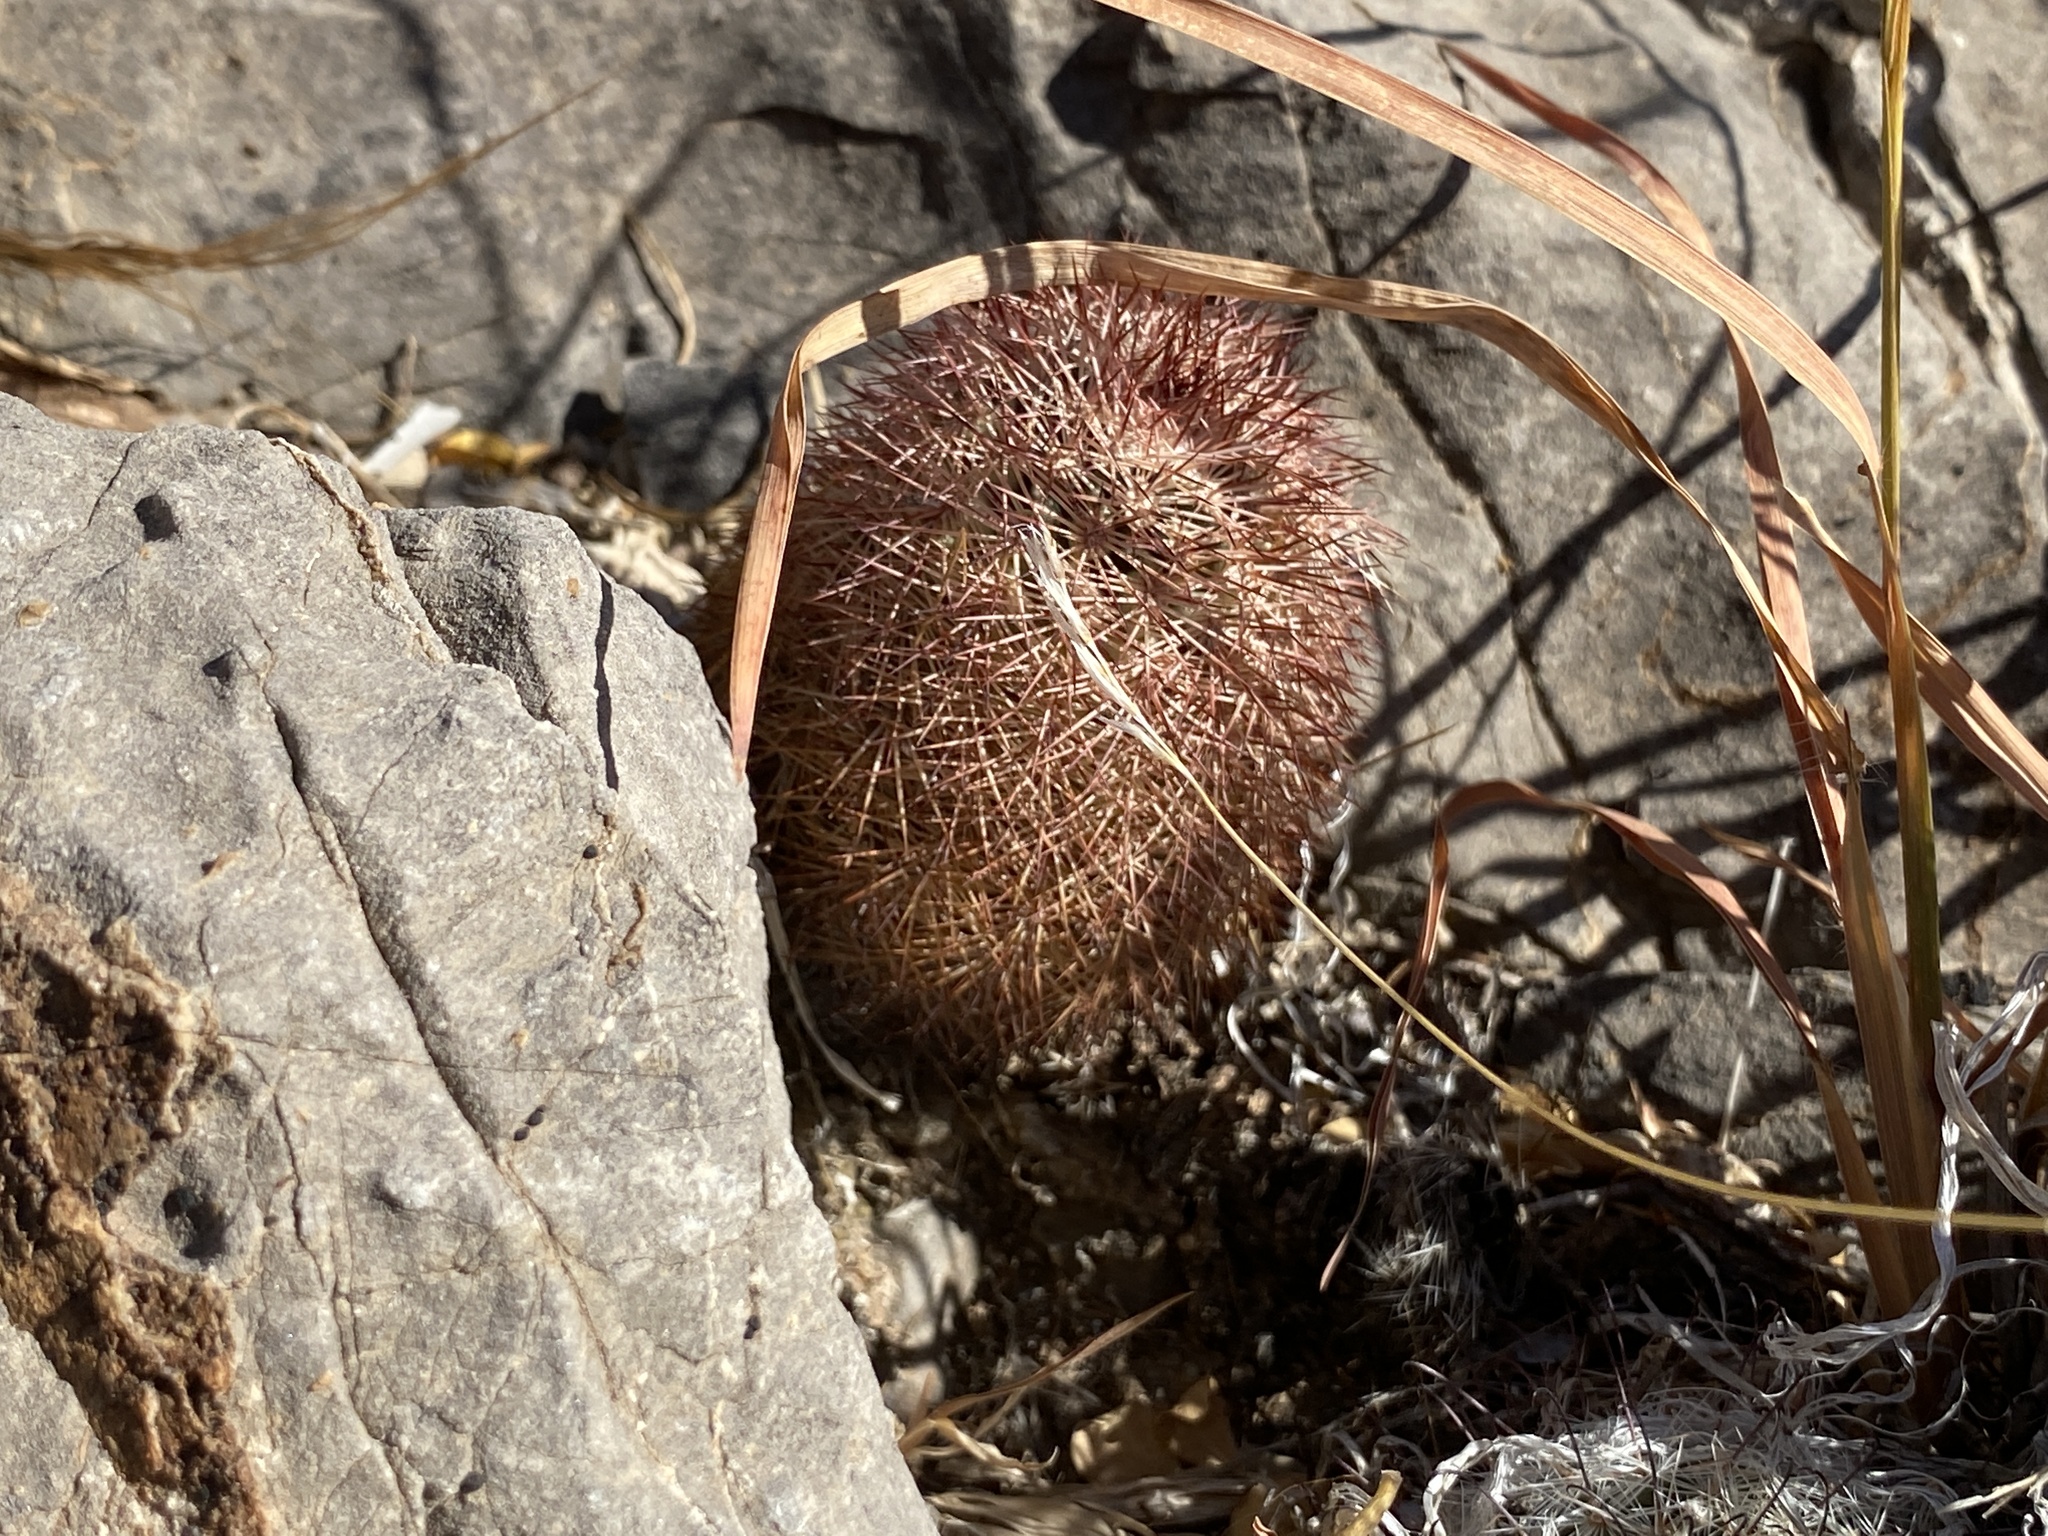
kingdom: Plantae
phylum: Tracheophyta
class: Magnoliopsida
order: Caryophyllales
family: Cactaceae
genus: Echinocereus
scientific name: Echinocereus dasyacanthus
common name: Spiny hedgehog cactus
